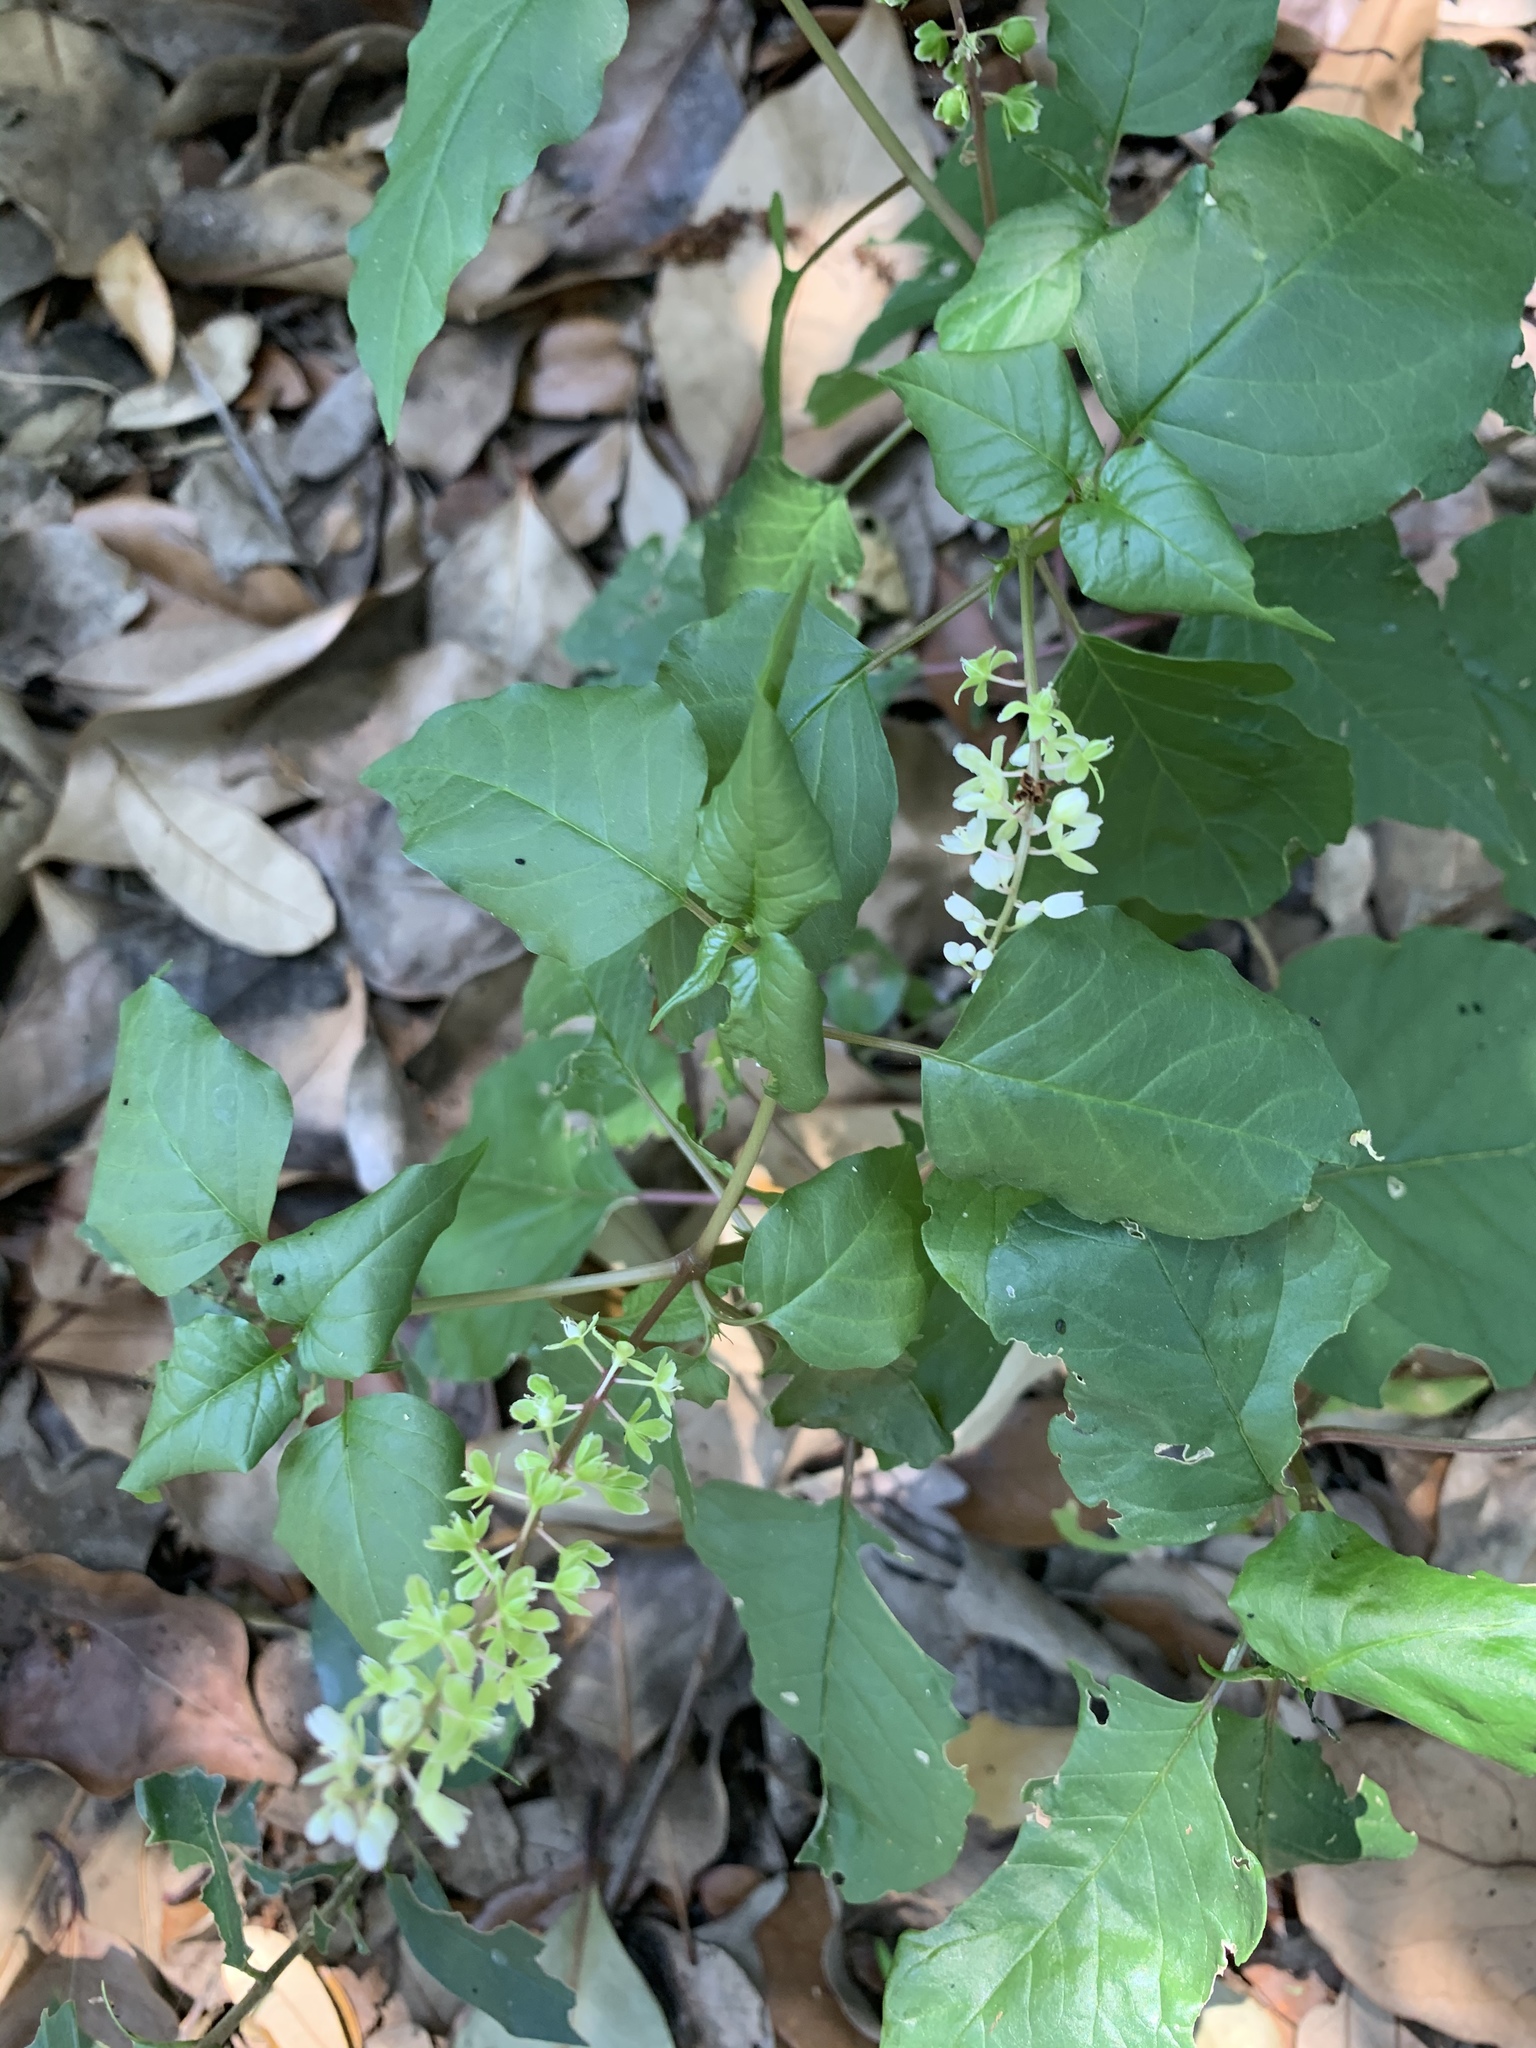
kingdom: Plantae
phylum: Tracheophyta
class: Magnoliopsida
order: Caryophyllales
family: Phytolaccaceae
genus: Rivina
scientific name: Rivina humilis
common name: Rougeplant
